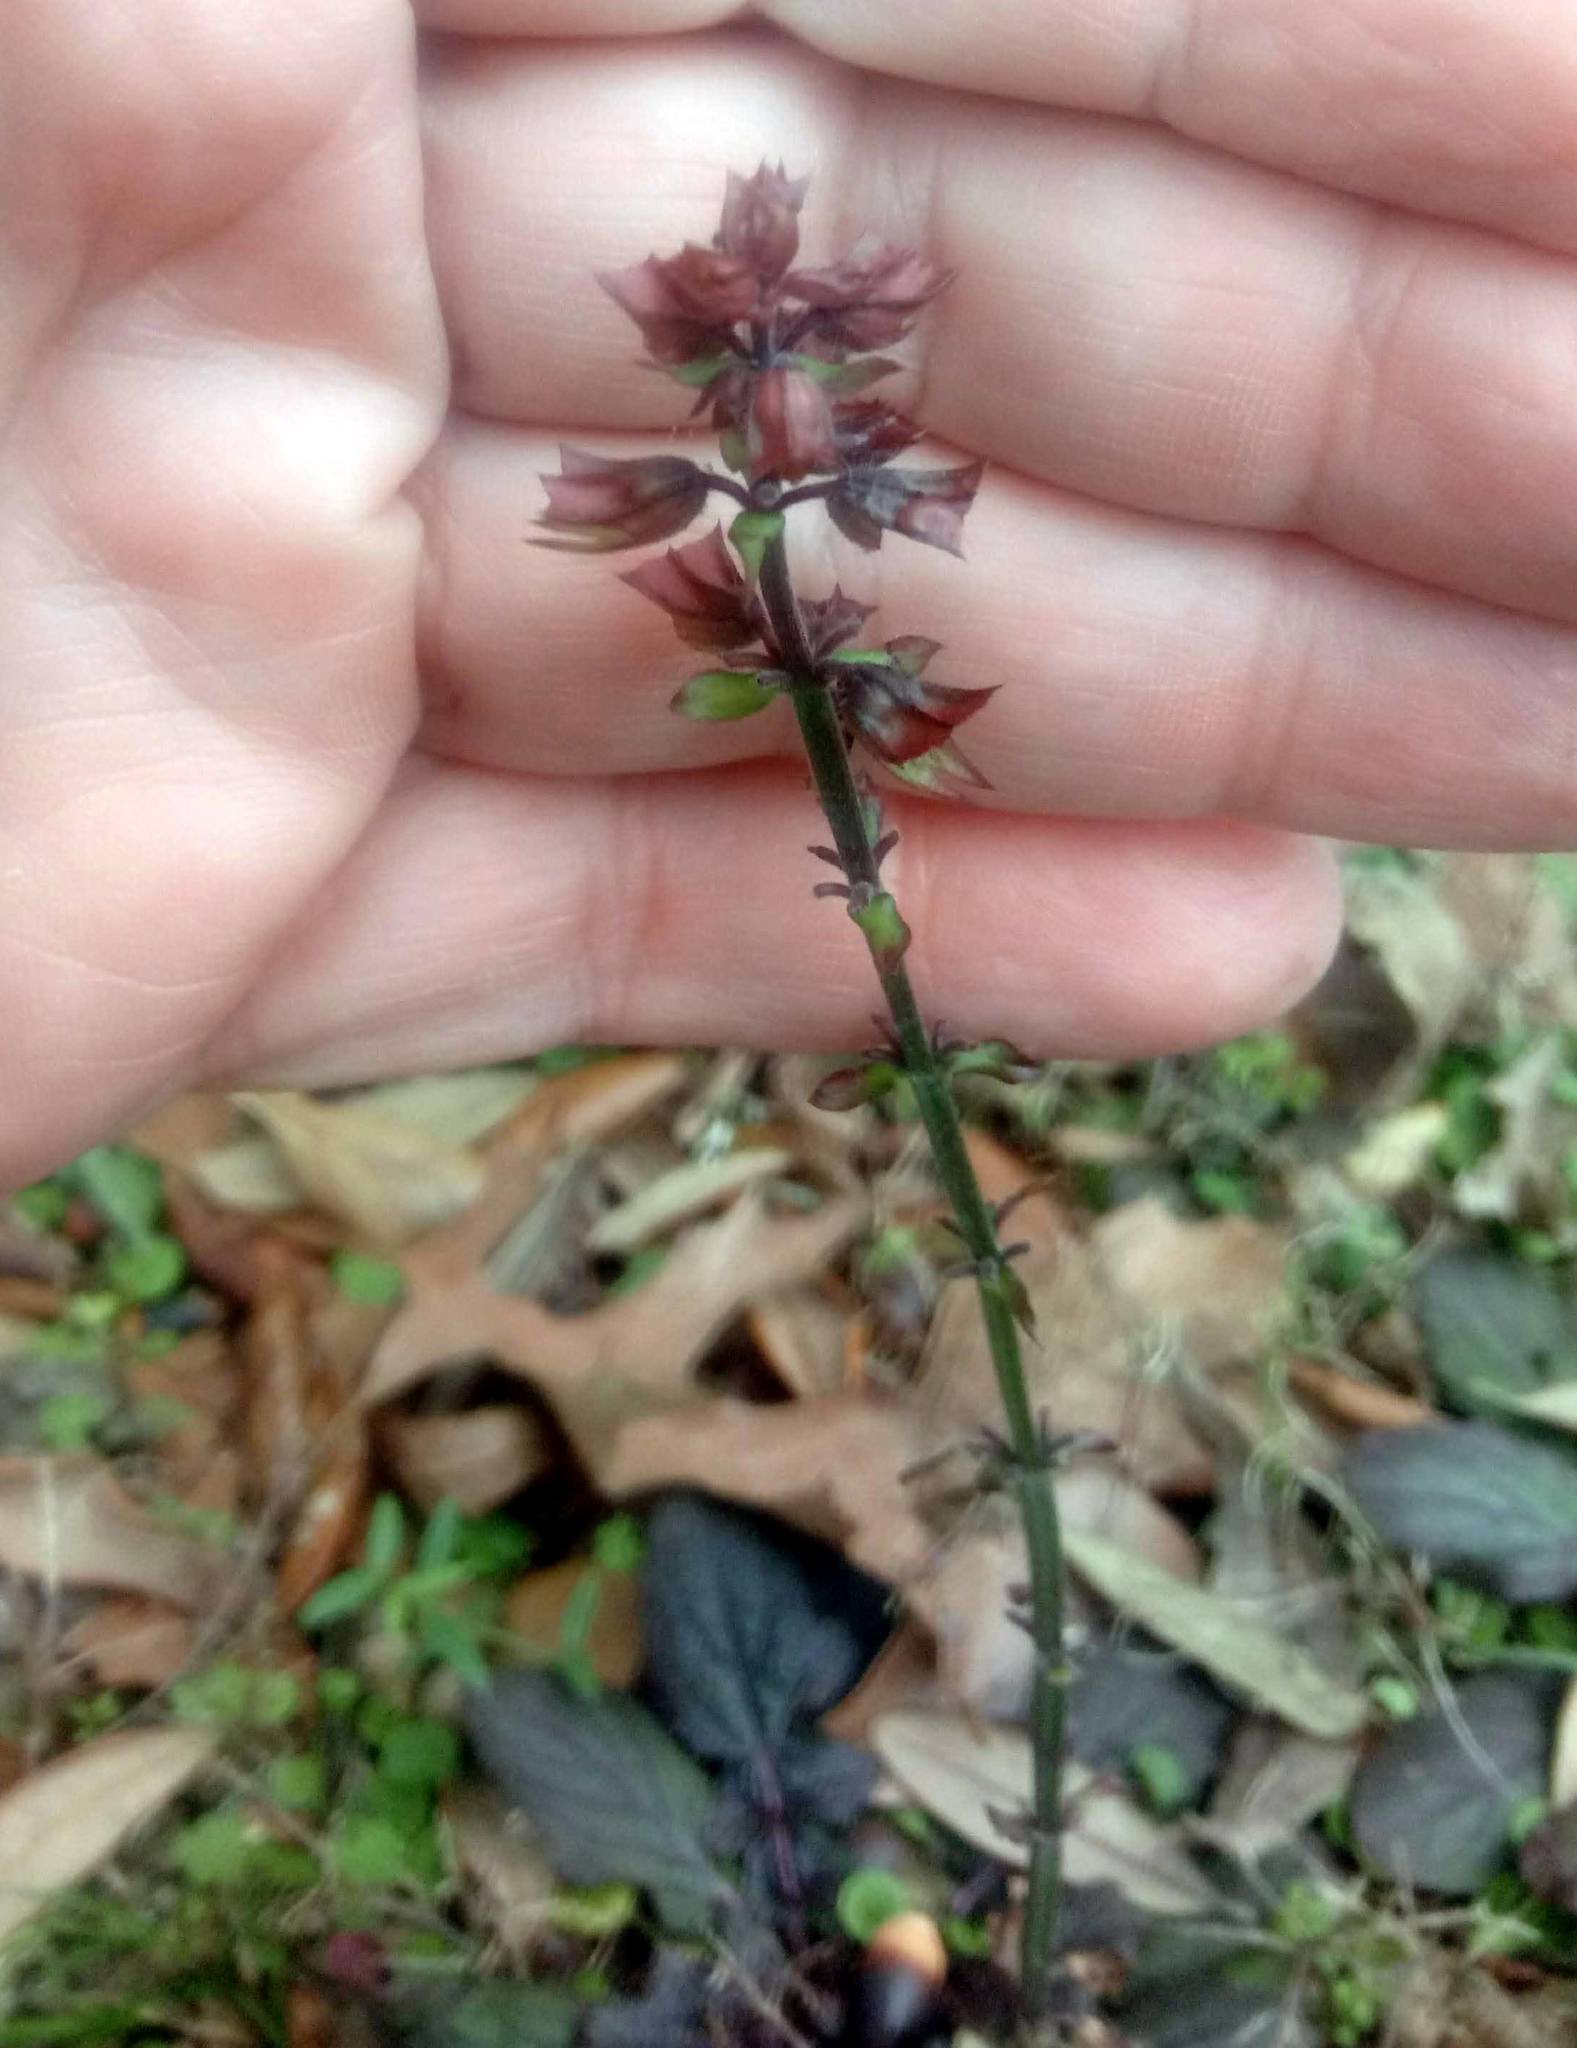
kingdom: Plantae
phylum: Tracheophyta
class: Magnoliopsida
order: Lamiales
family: Lamiaceae
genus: Salvia
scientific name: Salvia lyrata
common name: Cancerweed
